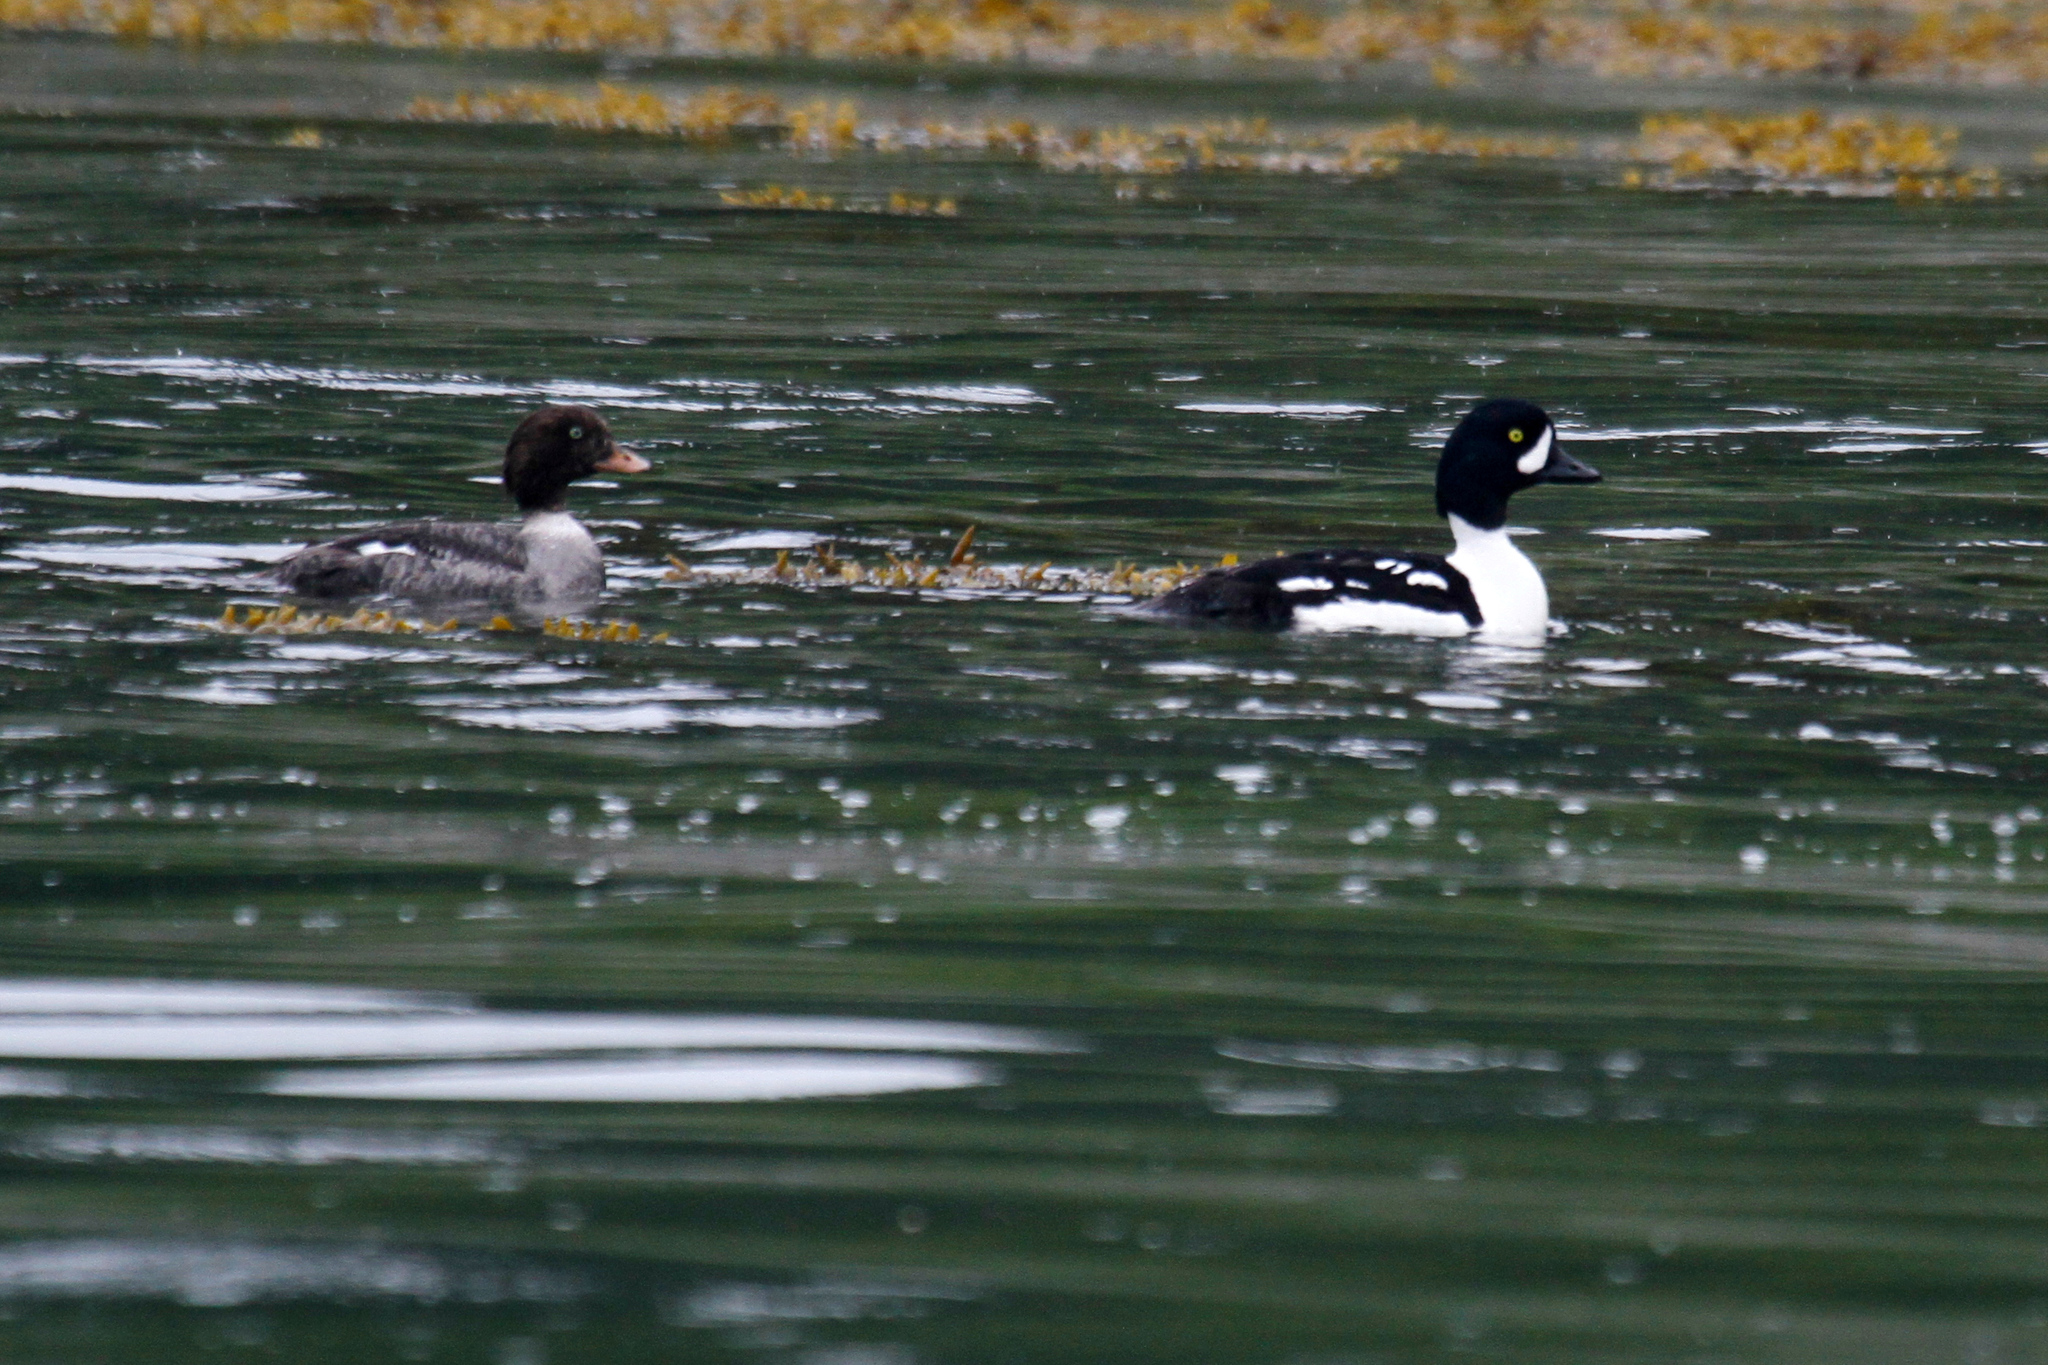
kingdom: Animalia
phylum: Chordata
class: Aves
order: Anseriformes
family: Anatidae
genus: Bucephala
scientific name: Bucephala islandica
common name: Barrow's goldeneye
